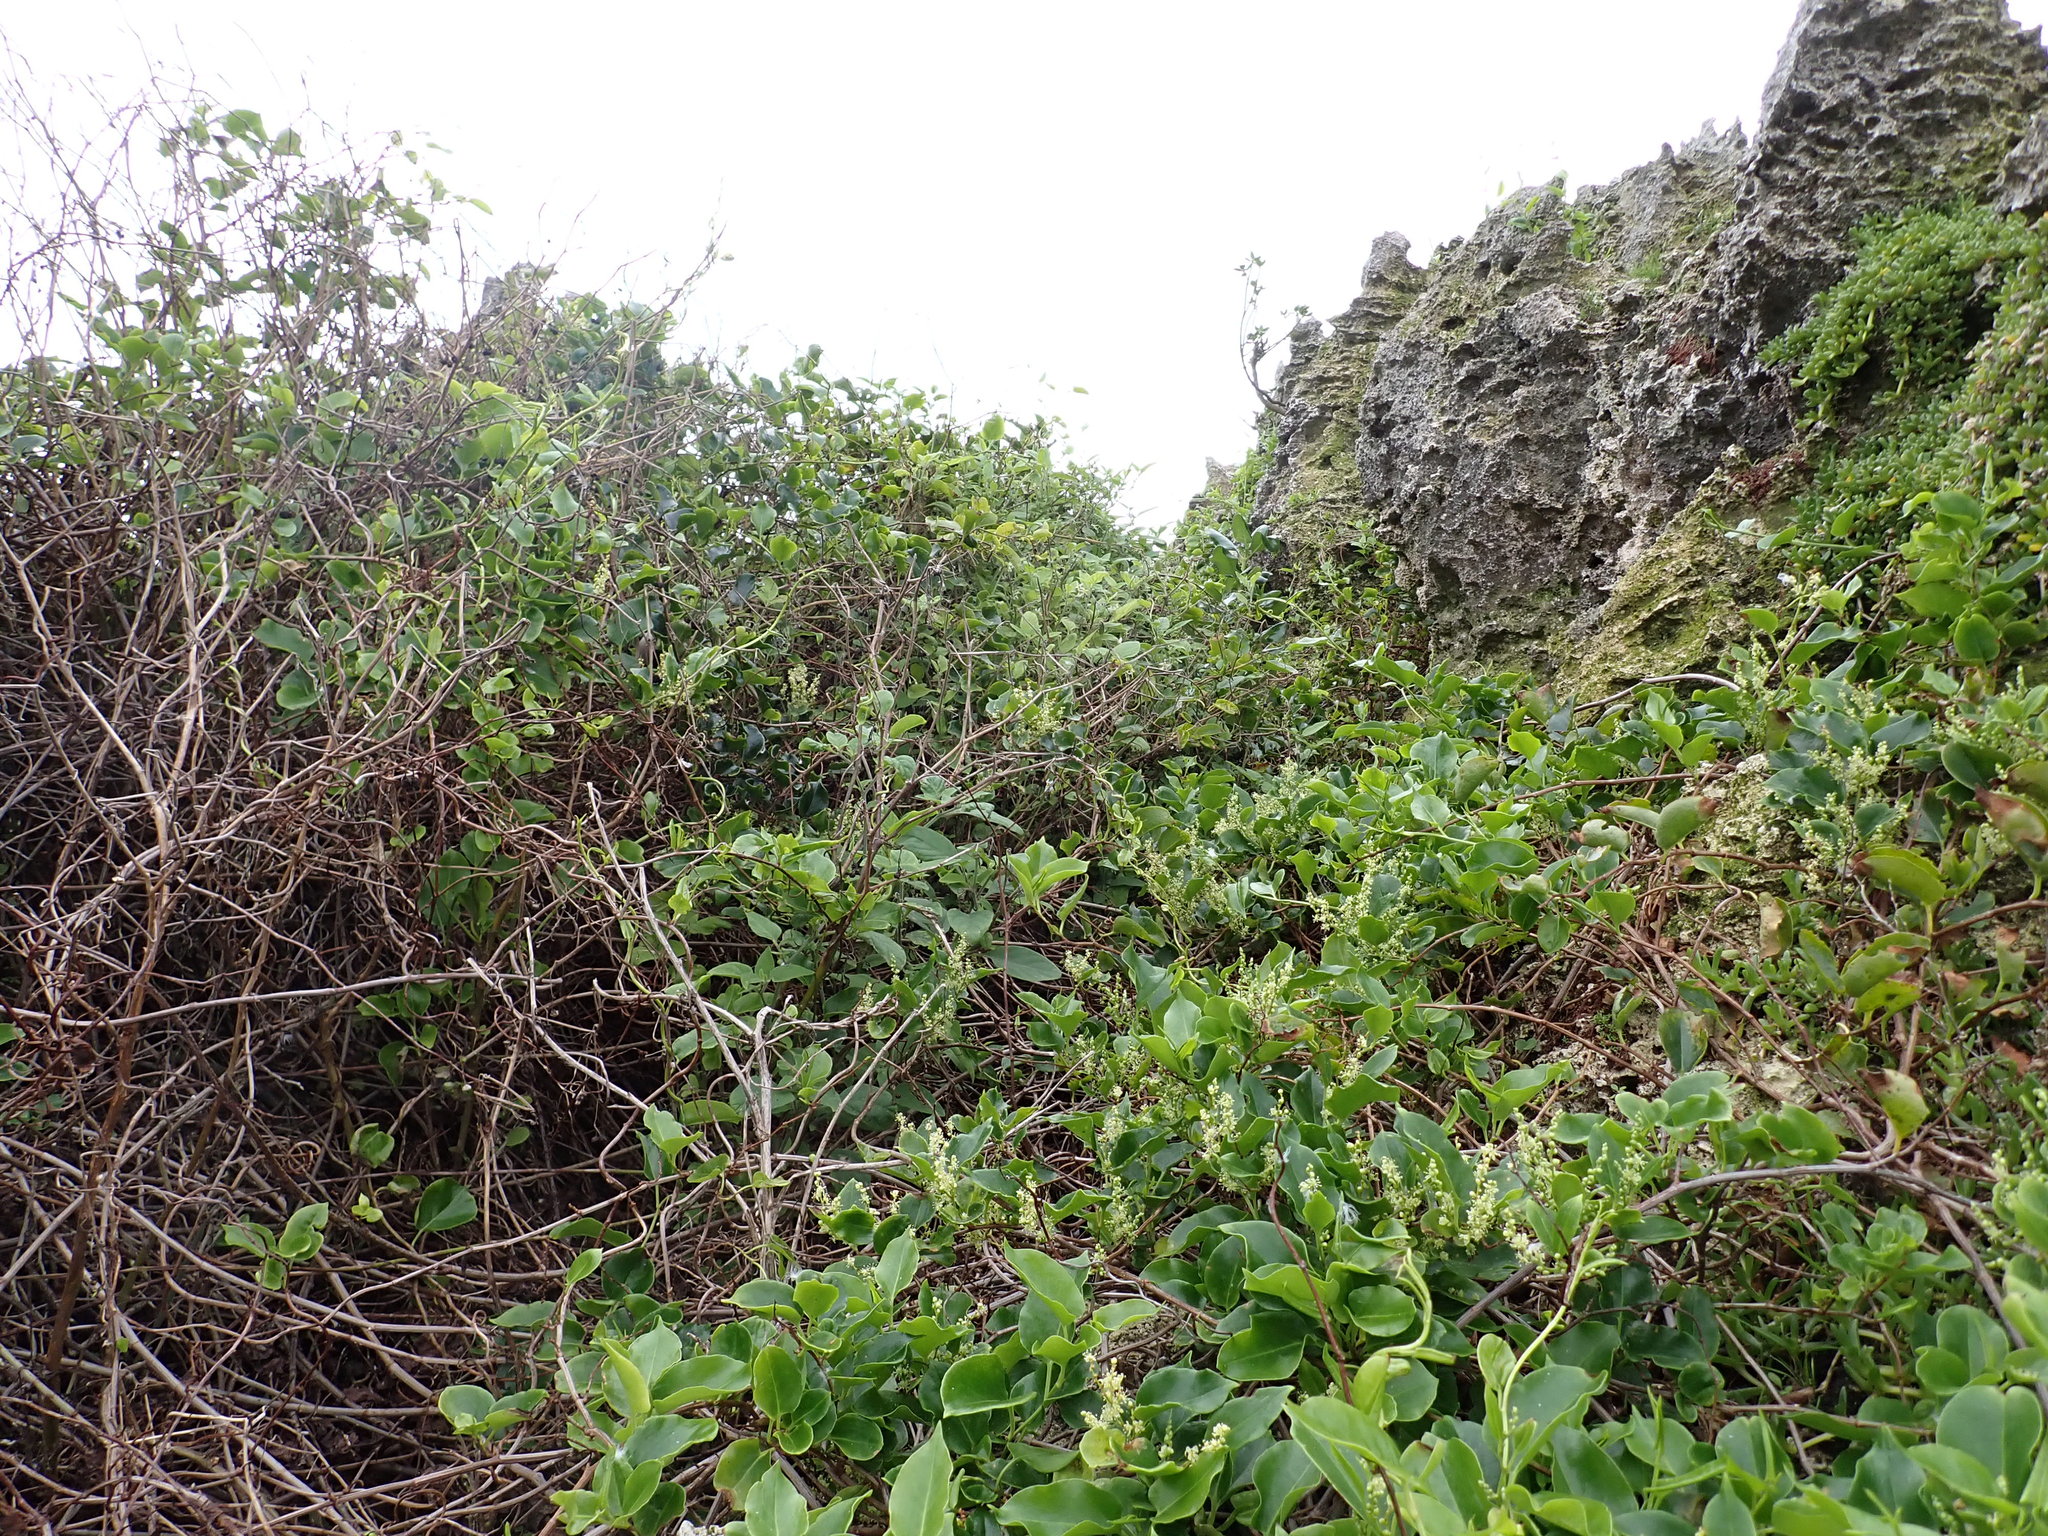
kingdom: Plantae
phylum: Tracheophyta
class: Magnoliopsida
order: Caryophyllales
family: Polygonaceae
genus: Muehlenbeckia
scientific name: Muehlenbeckia australis
